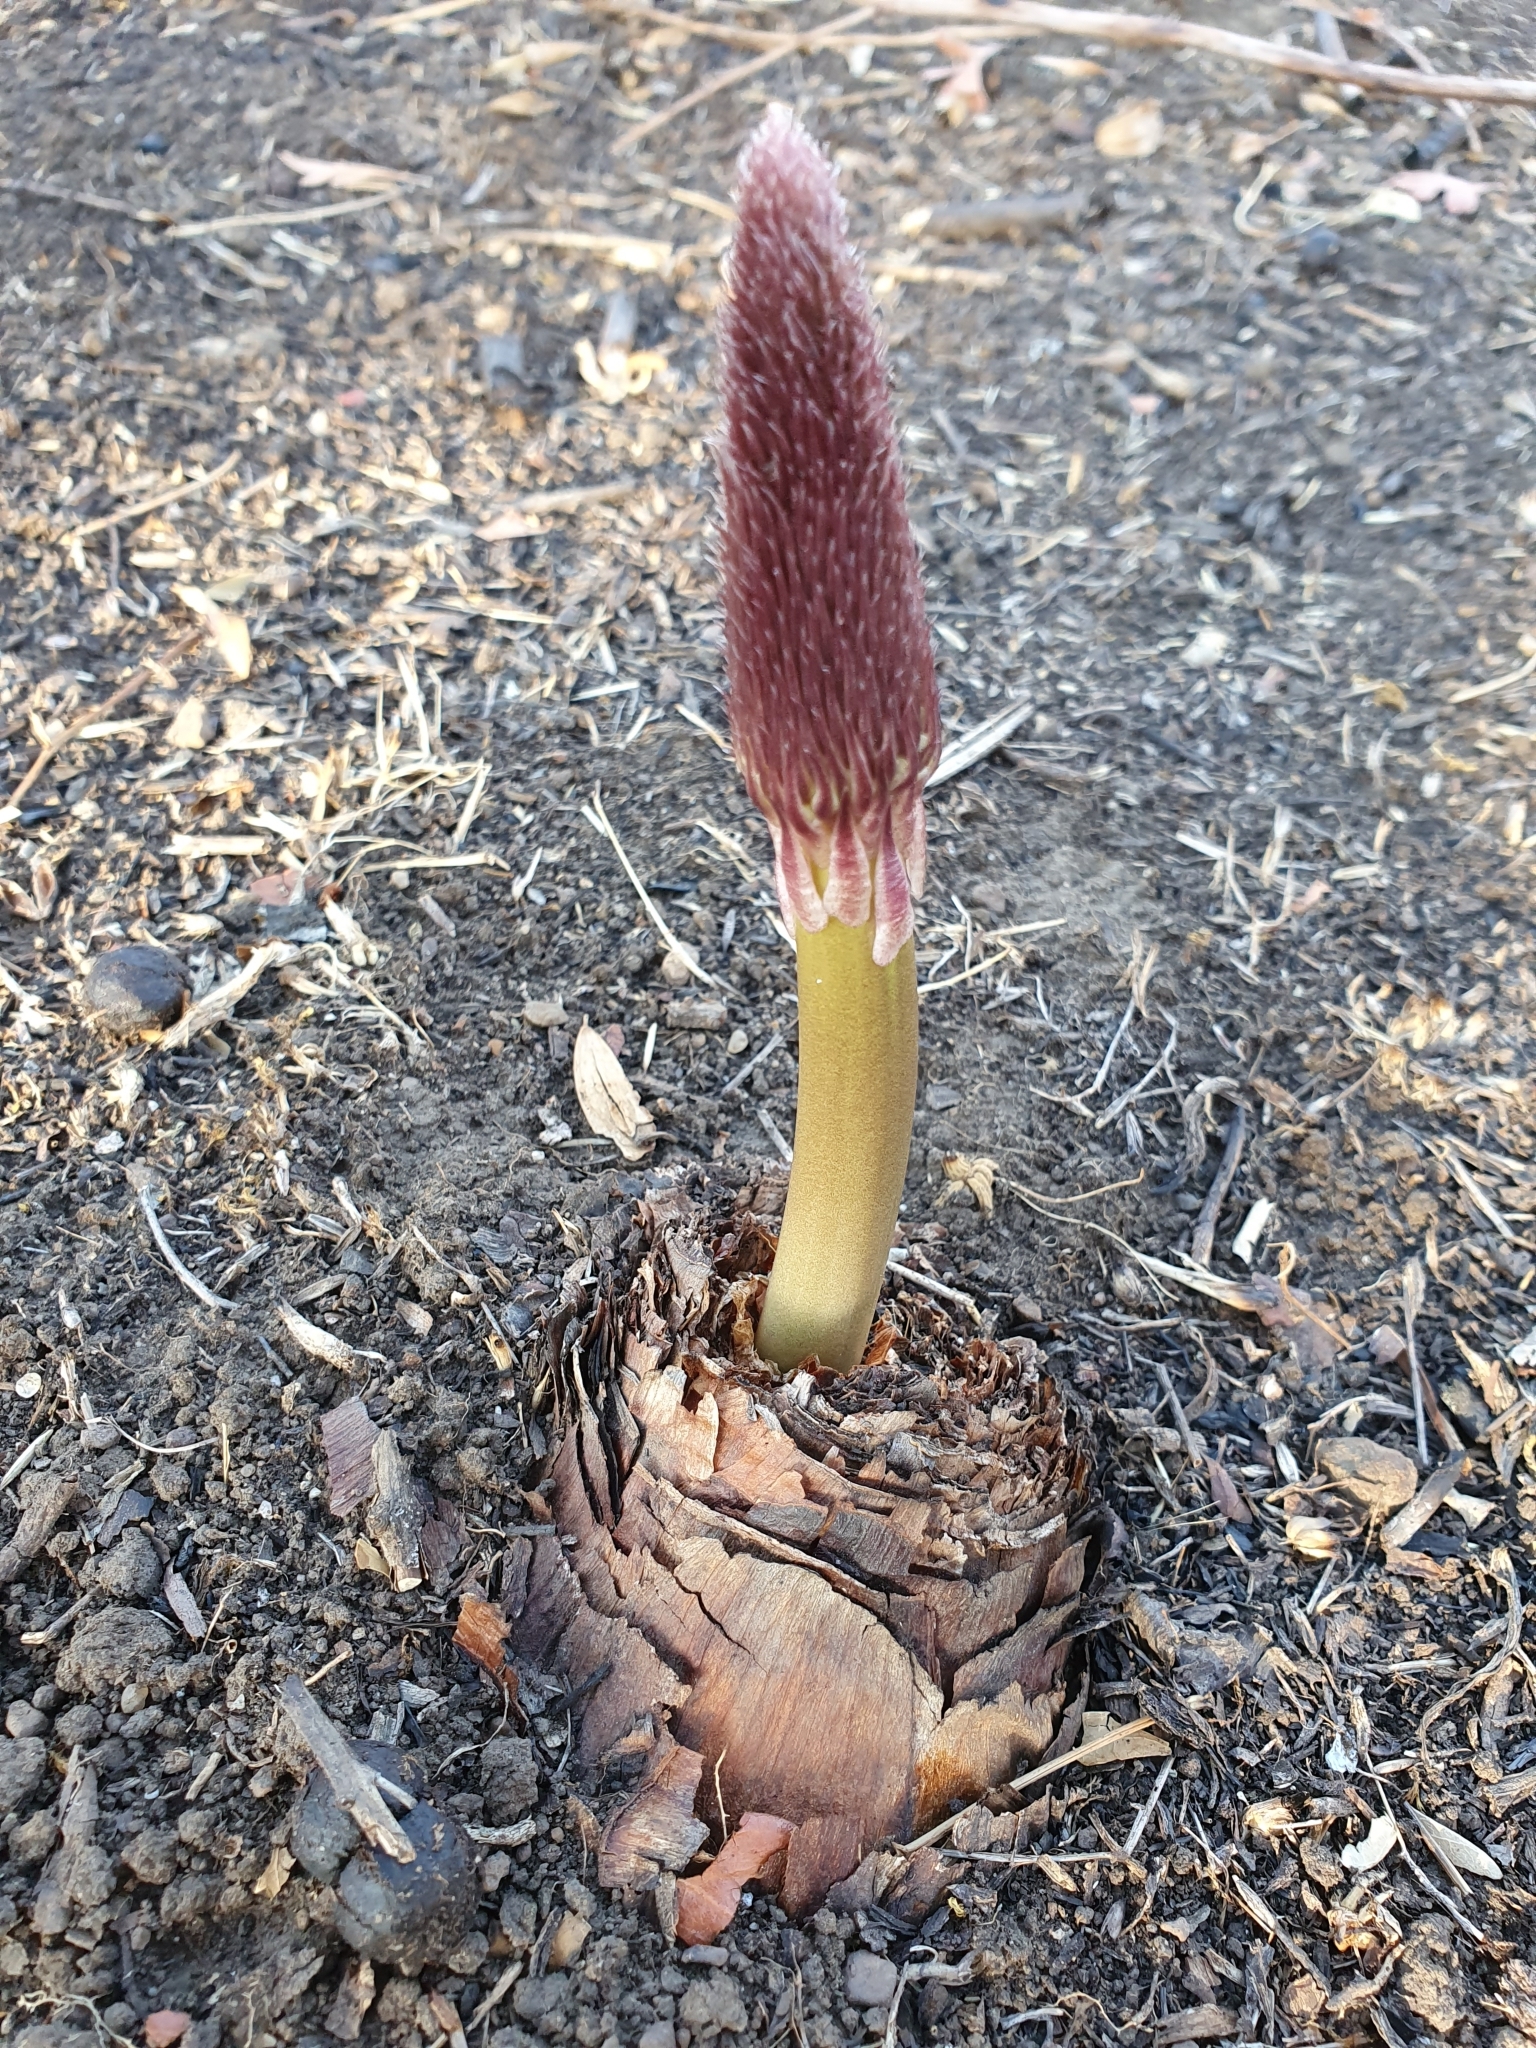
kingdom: Plantae
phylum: Tracheophyta
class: Liliopsida
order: Asparagales
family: Asparagaceae
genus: Drimia
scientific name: Drimia numidica
